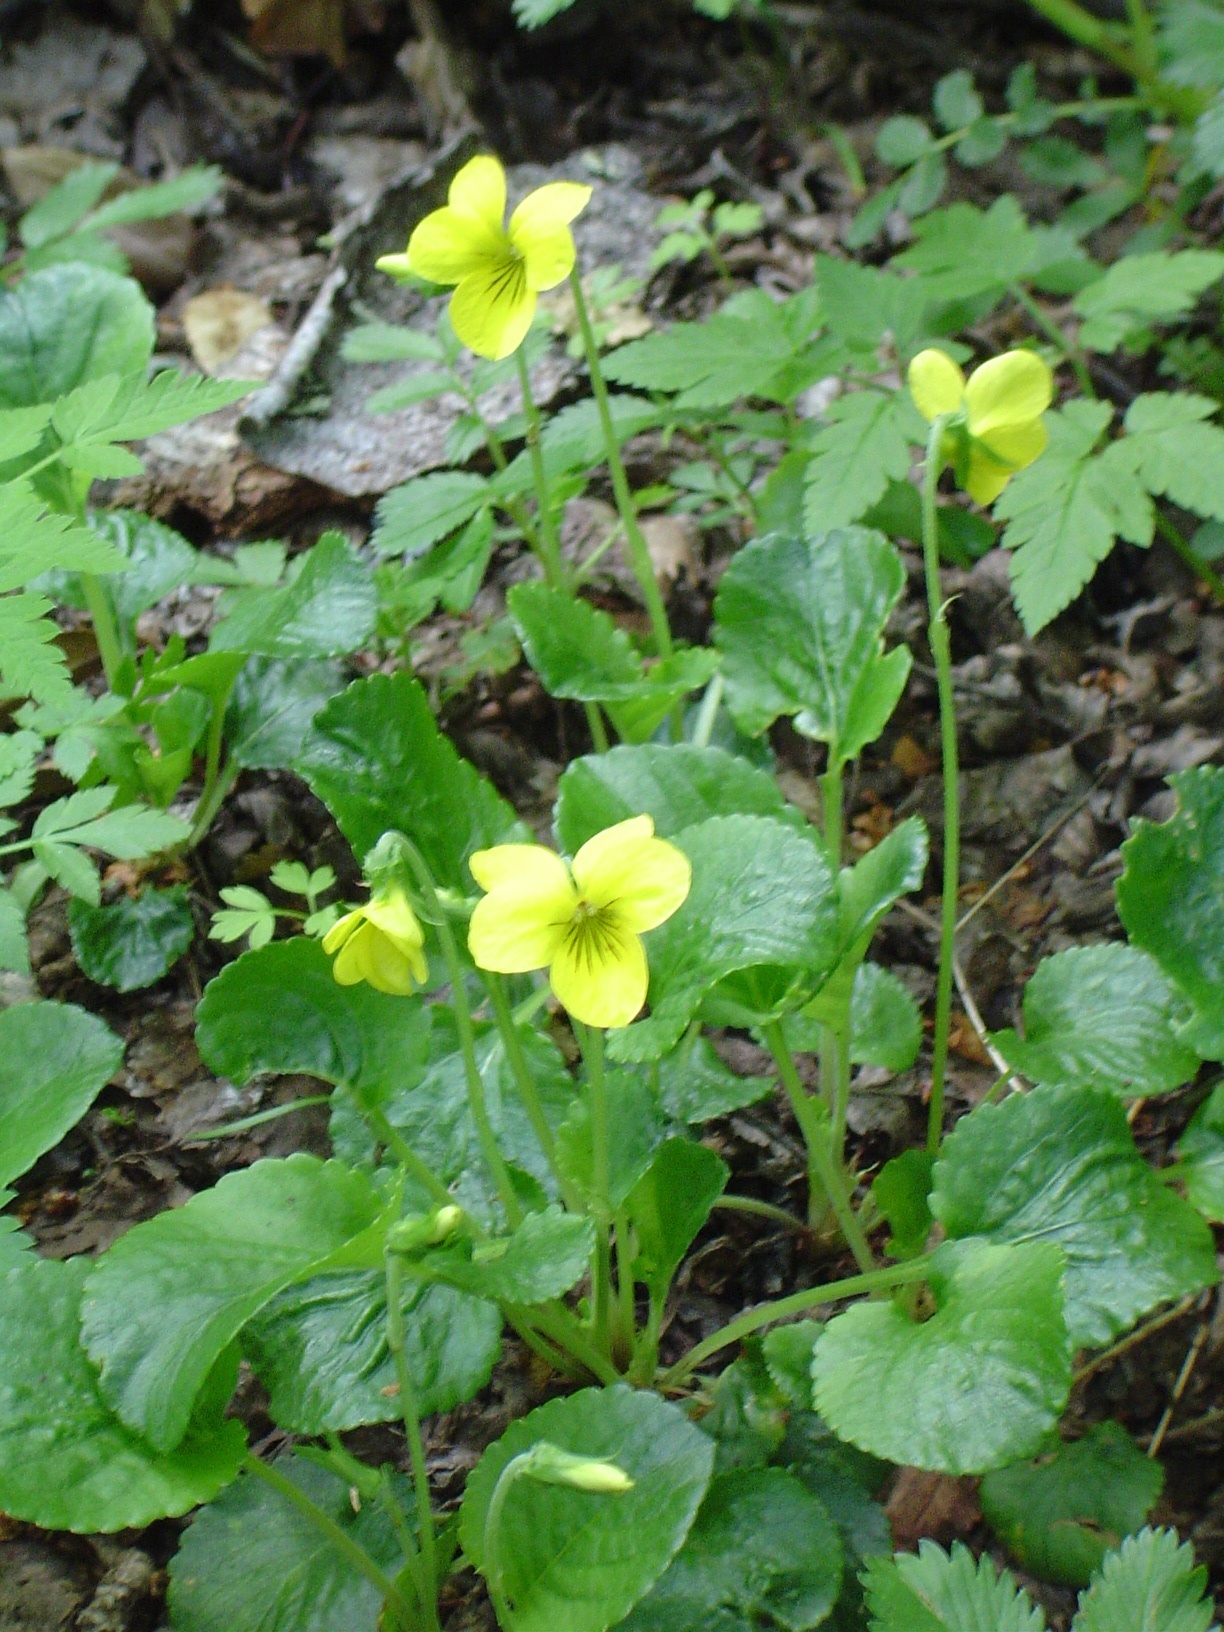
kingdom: Plantae
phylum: Tracheophyta
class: Magnoliopsida
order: Malpighiales
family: Violaceae
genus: Viola
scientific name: Viola reichei
